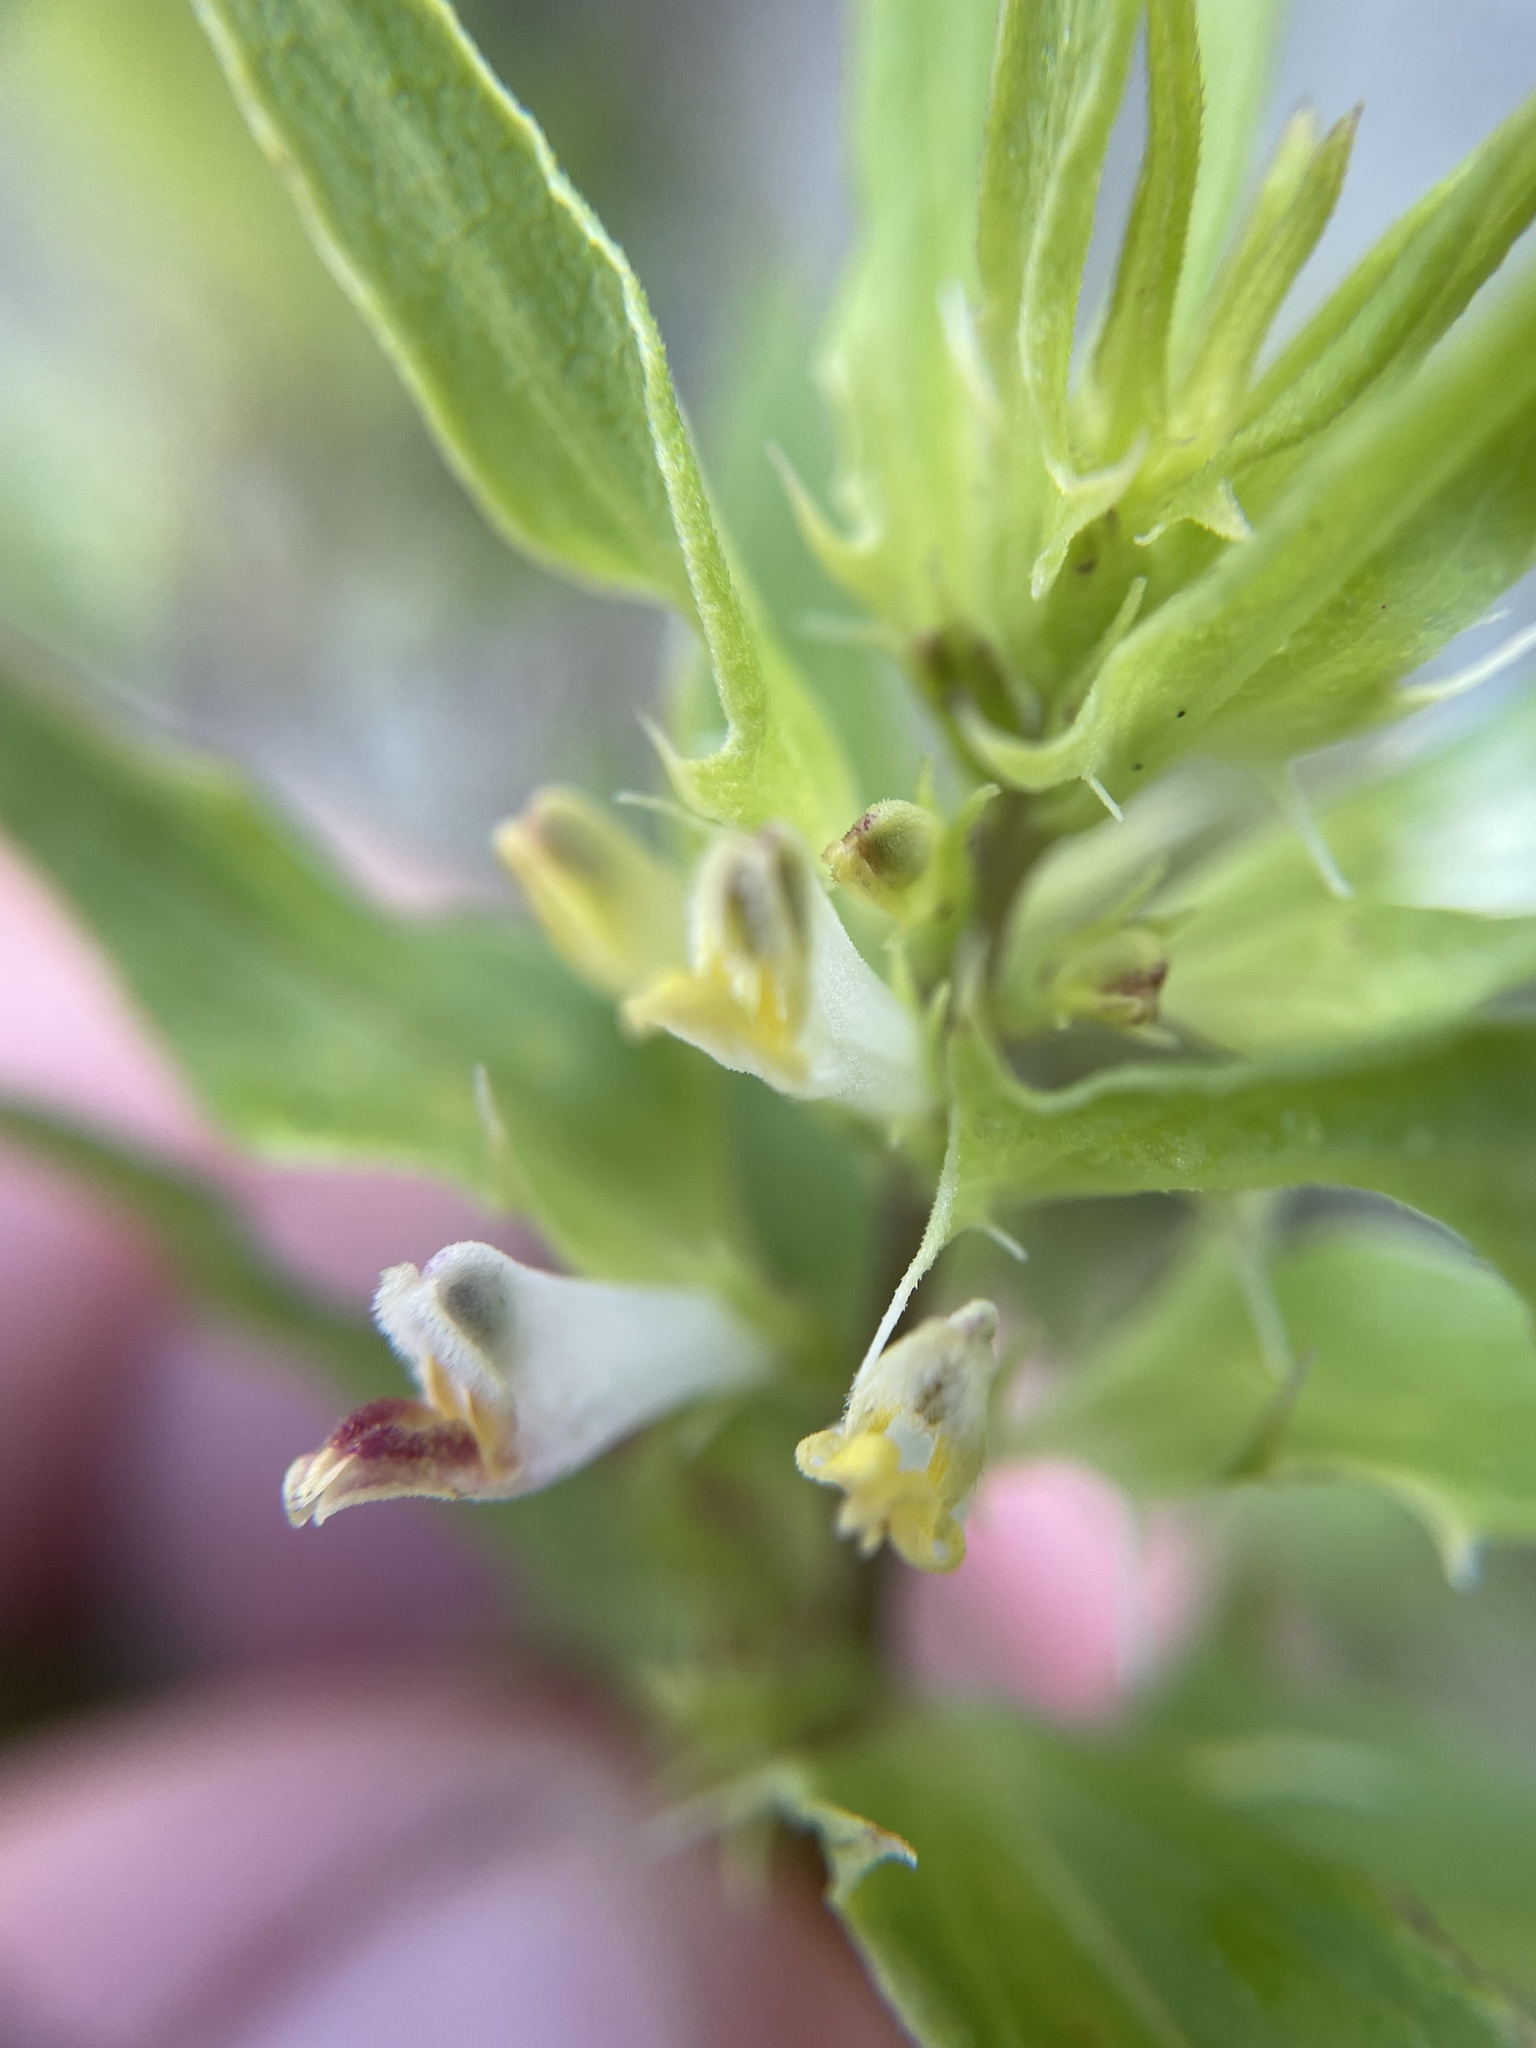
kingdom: Plantae
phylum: Tracheophyta
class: Magnoliopsida
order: Lamiales
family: Orobanchaceae
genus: Melampyrum
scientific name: Melampyrum lineare
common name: American cow-wheat
